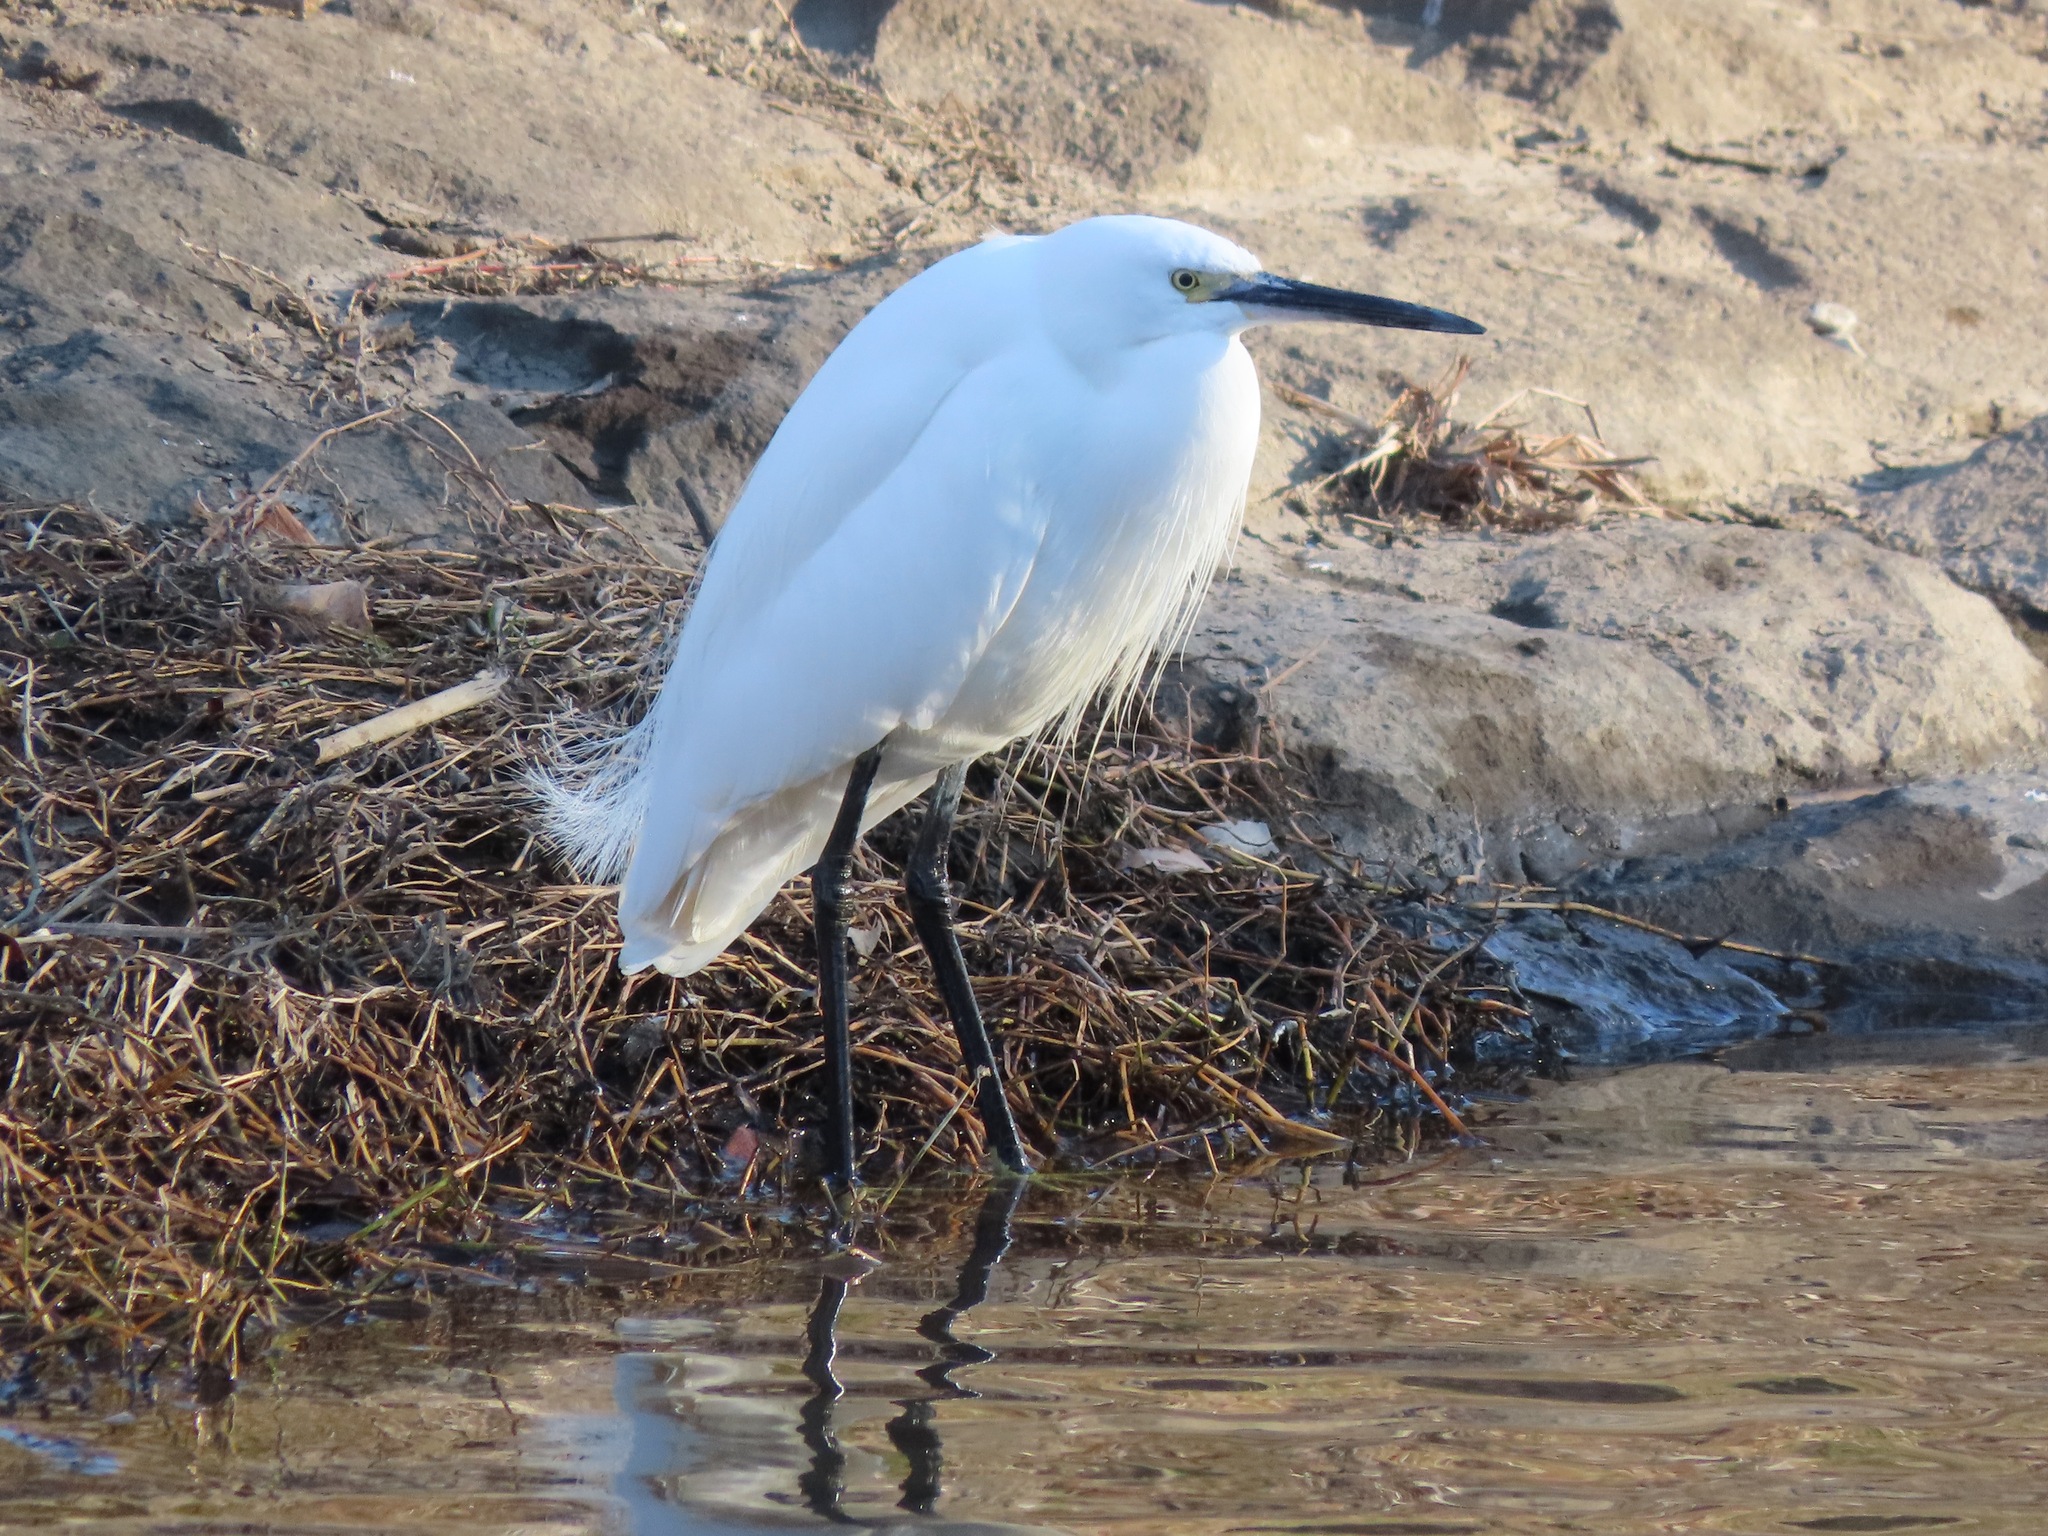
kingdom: Animalia
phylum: Chordata
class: Aves
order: Pelecaniformes
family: Ardeidae
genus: Egretta
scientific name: Egretta garzetta
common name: Little egret
